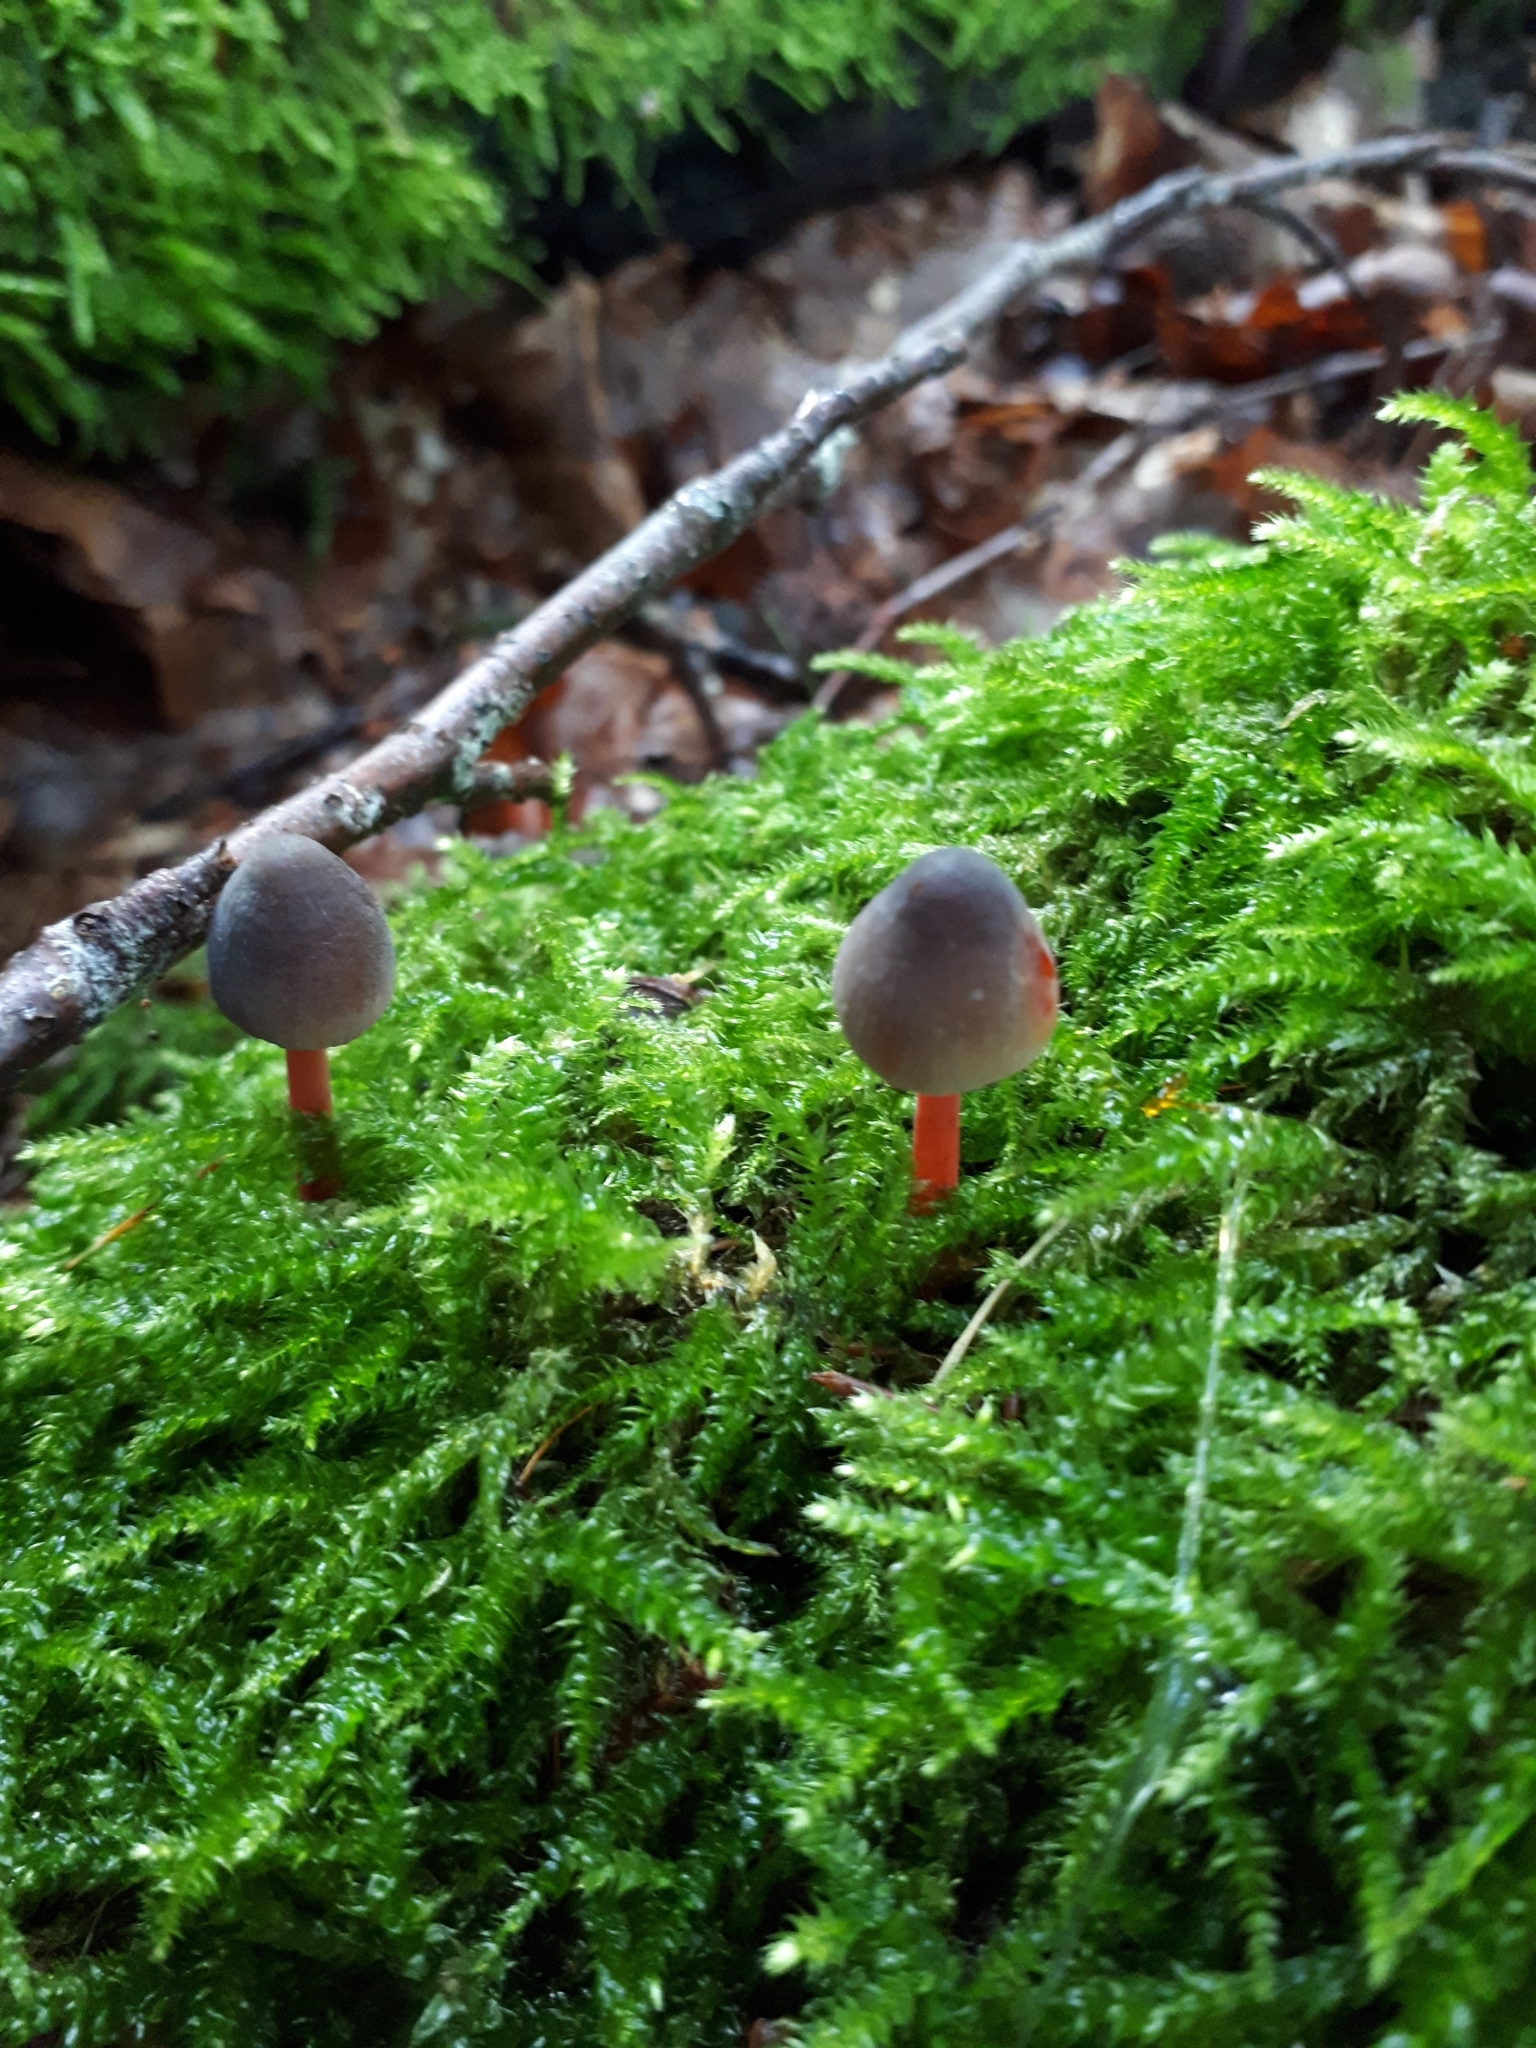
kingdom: Fungi
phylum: Basidiomycota
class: Agaricomycetes
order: Agaricales
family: Mycenaceae
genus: Mycena
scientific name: Mycena crocata
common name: Saffrondrop bonnet
